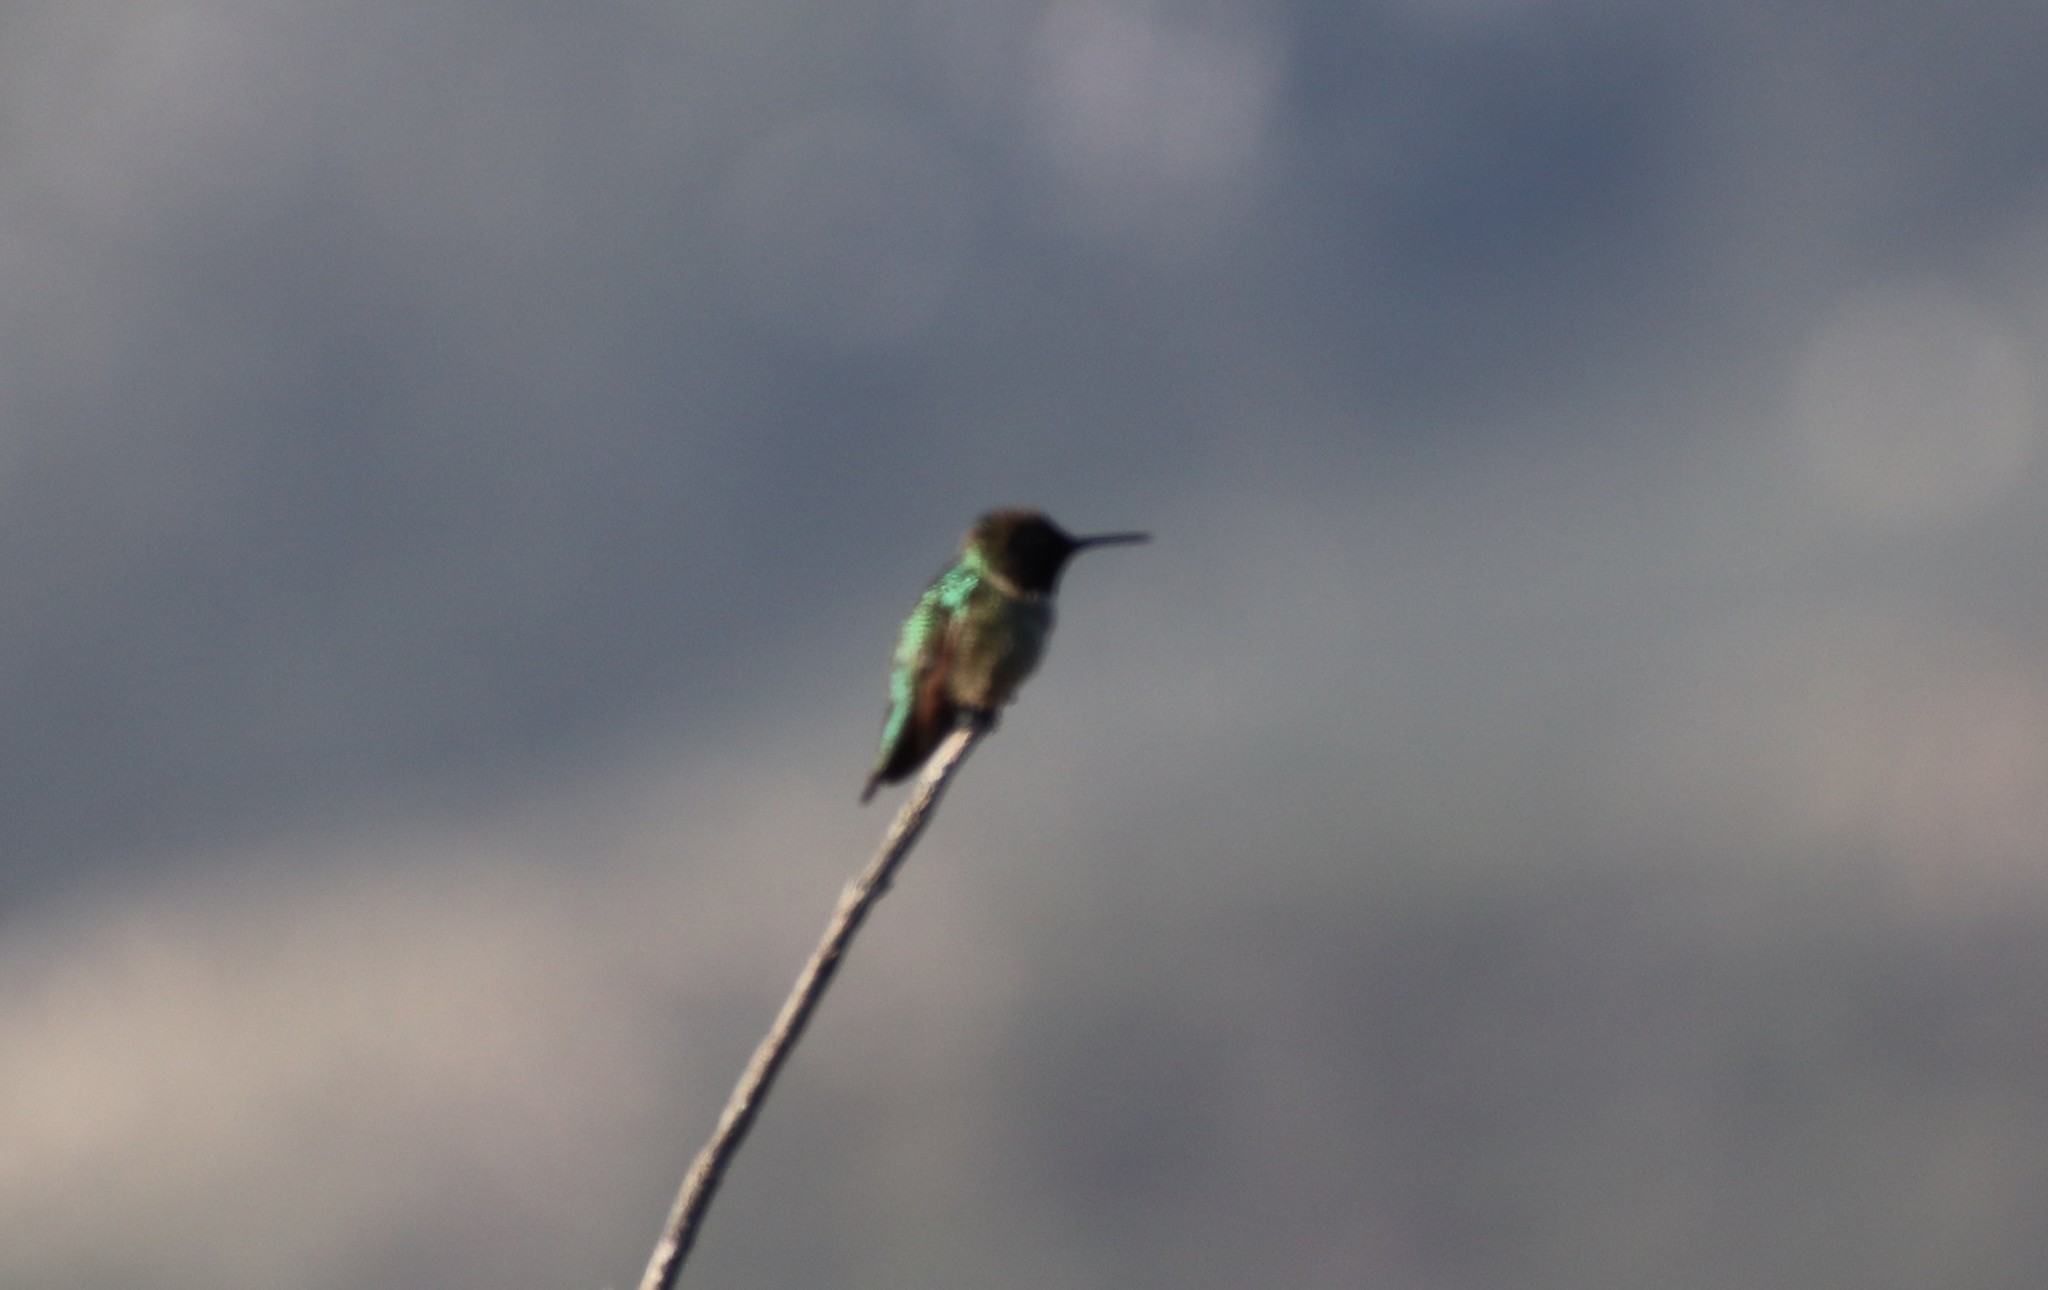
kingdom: Animalia
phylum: Chordata
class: Aves
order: Apodiformes
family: Trochilidae
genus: Calypte
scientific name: Calypte anna
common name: Anna's hummingbird
